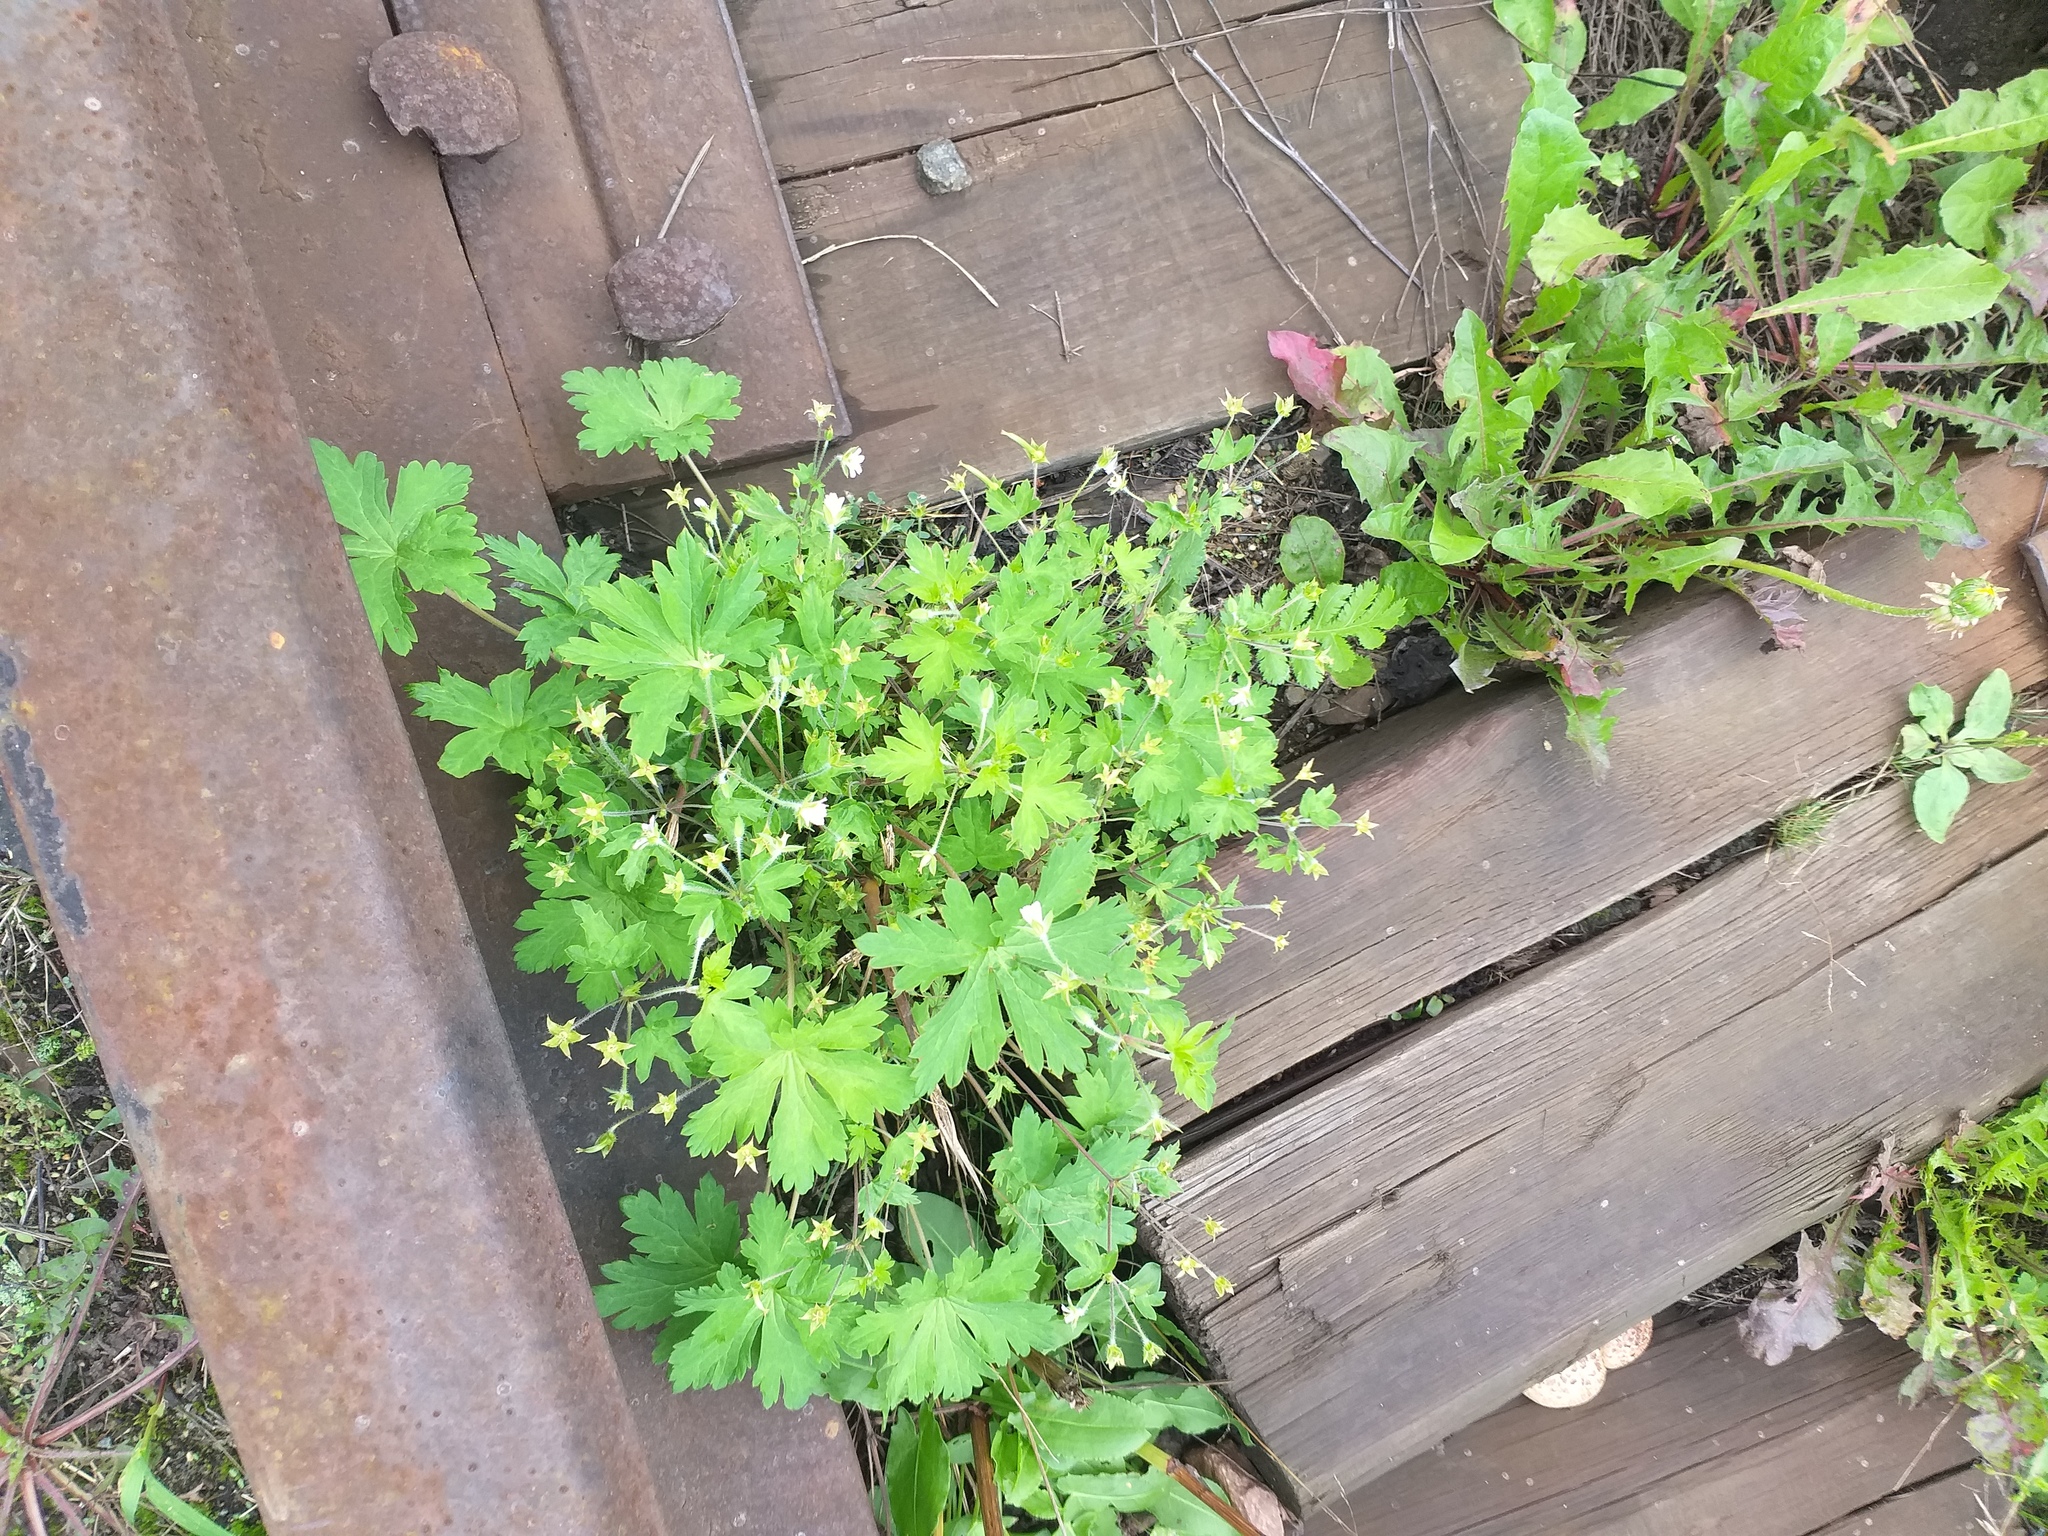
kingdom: Plantae
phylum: Tracheophyta
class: Magnoliopsida
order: Geraniales
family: Geraniaceae
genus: Geranium
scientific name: Geranium sibiricum
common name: Siberian crane's-bill
